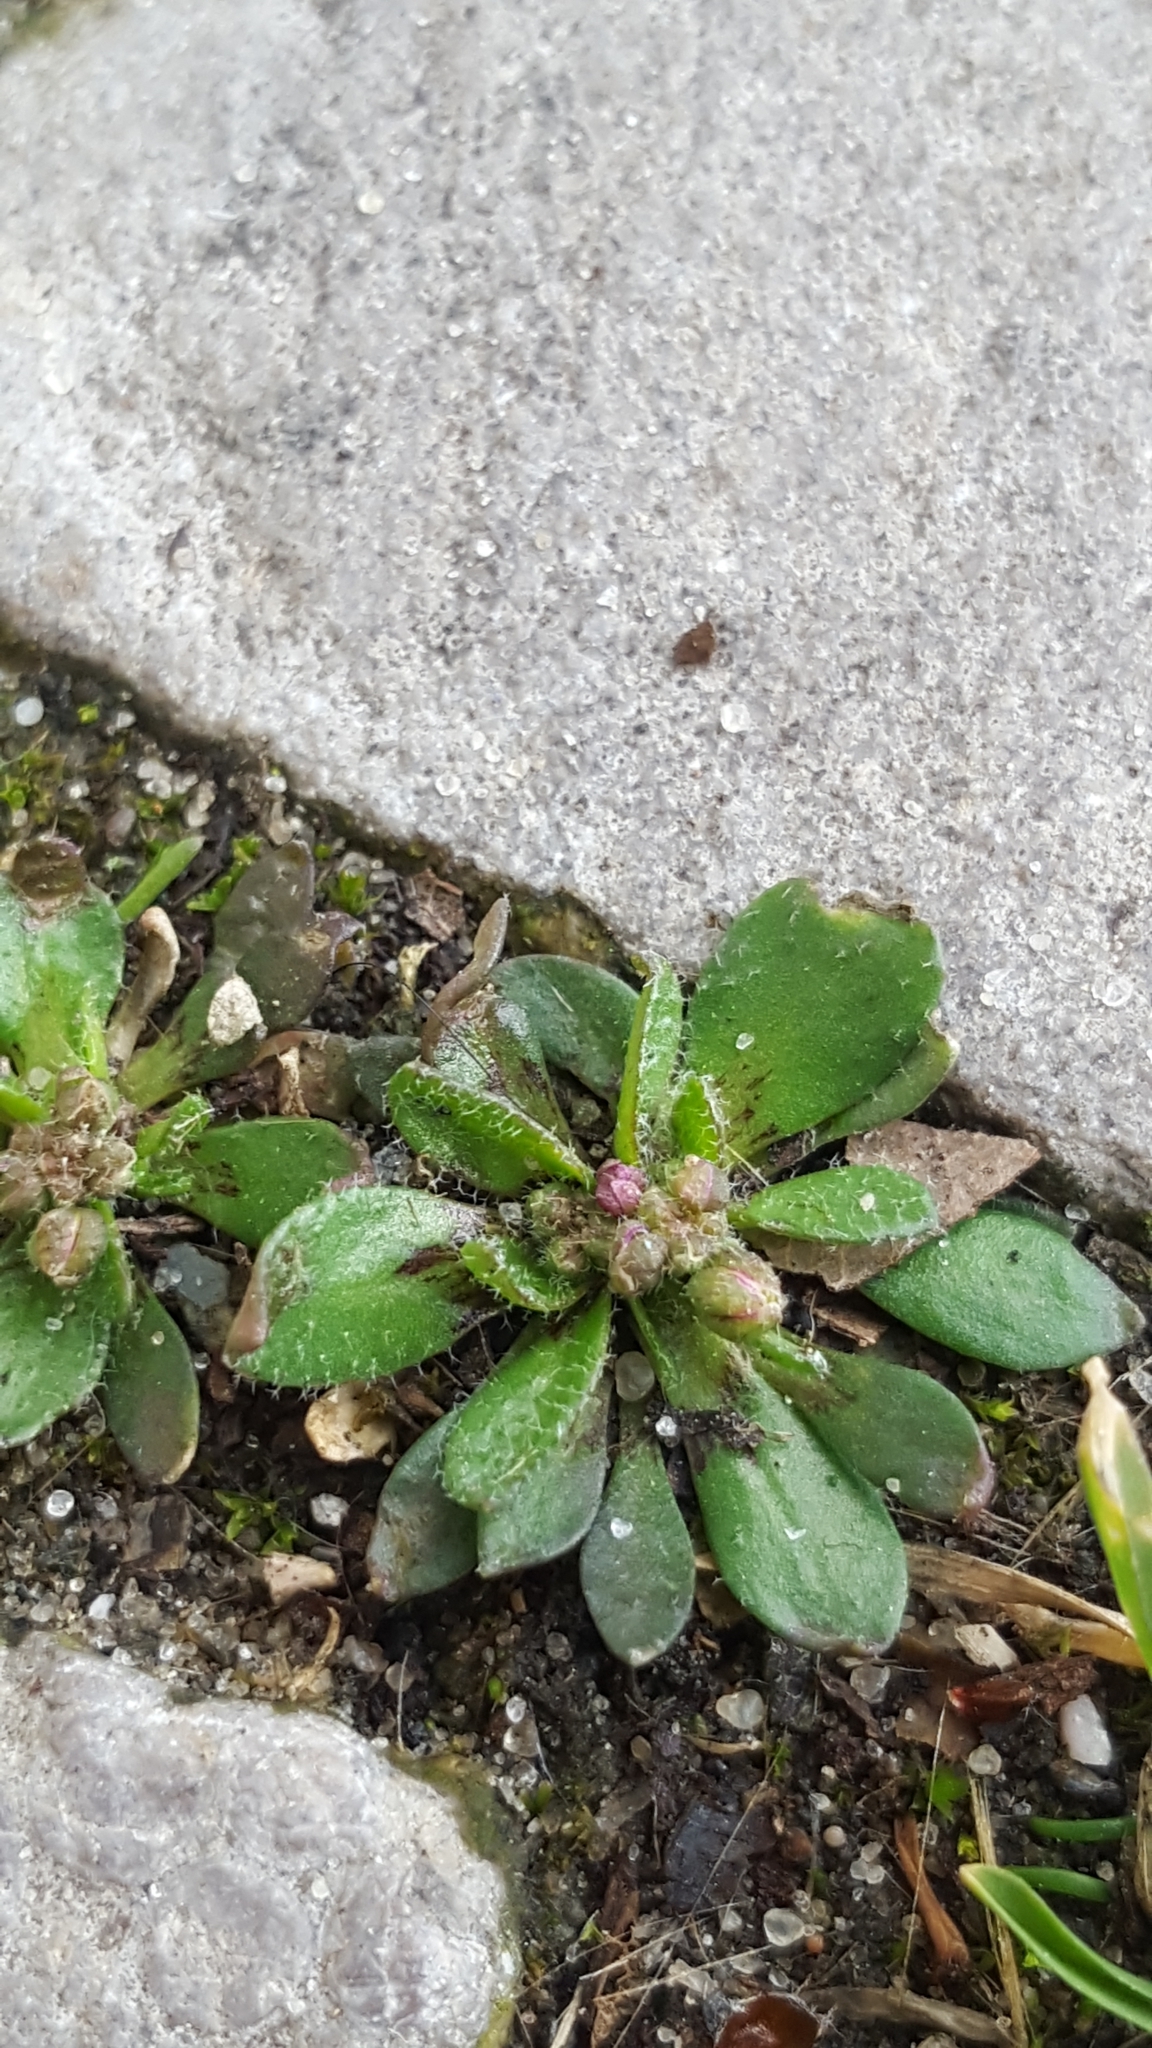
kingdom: Plantae
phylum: Tracheophyta
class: Magnoliopsida
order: Brassicales
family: Brassicaceae
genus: Draba
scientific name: Draba verna
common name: Spring draba
